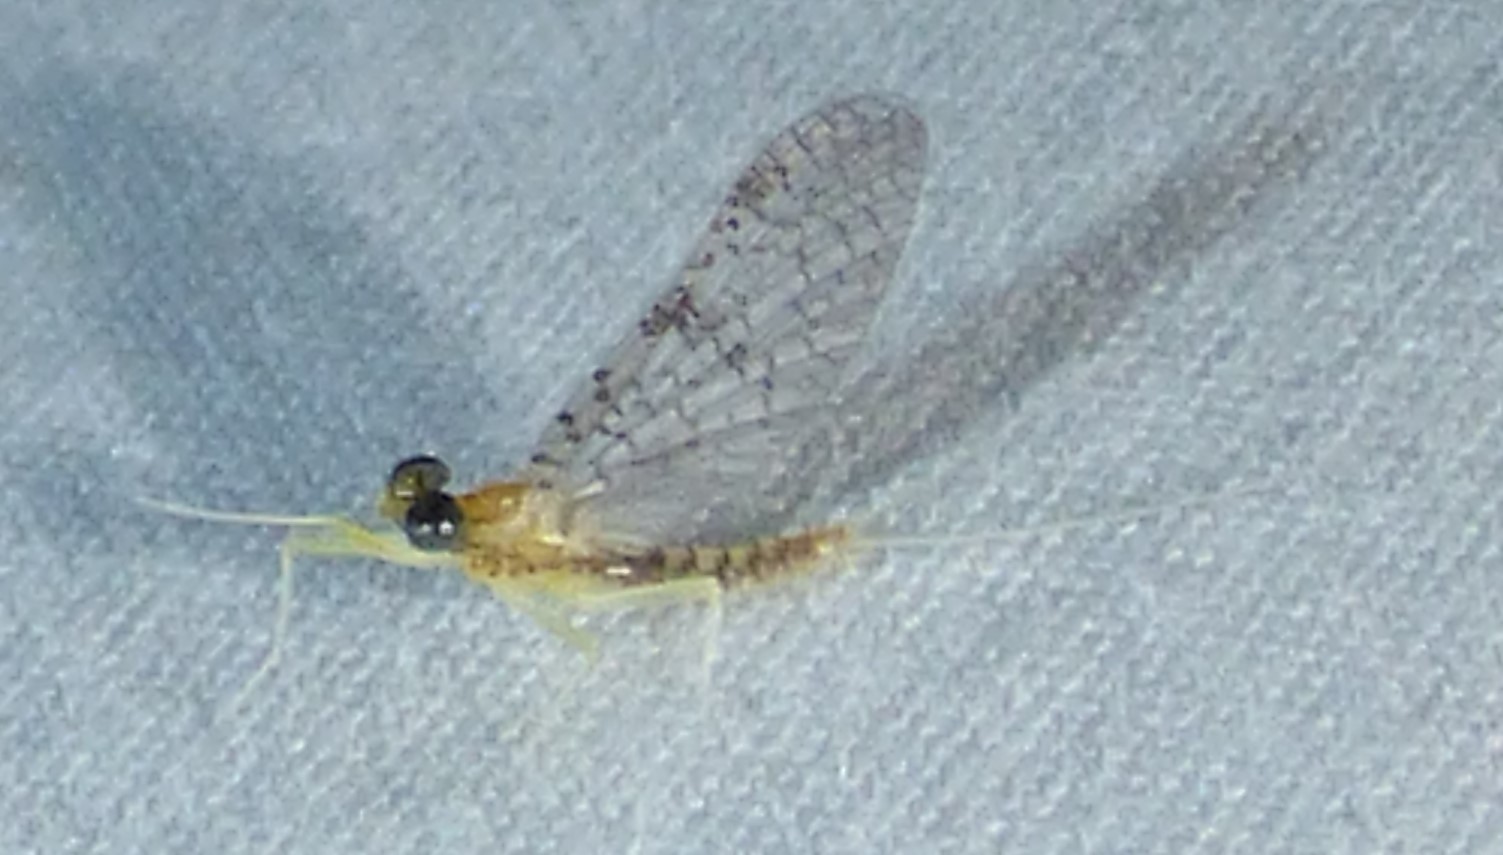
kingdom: Animalia
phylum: Arthropoda
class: Insecta
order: Ephemeroptera
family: Heptageniidae
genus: Leucrocuta
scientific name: Leucrocuta umbratica
